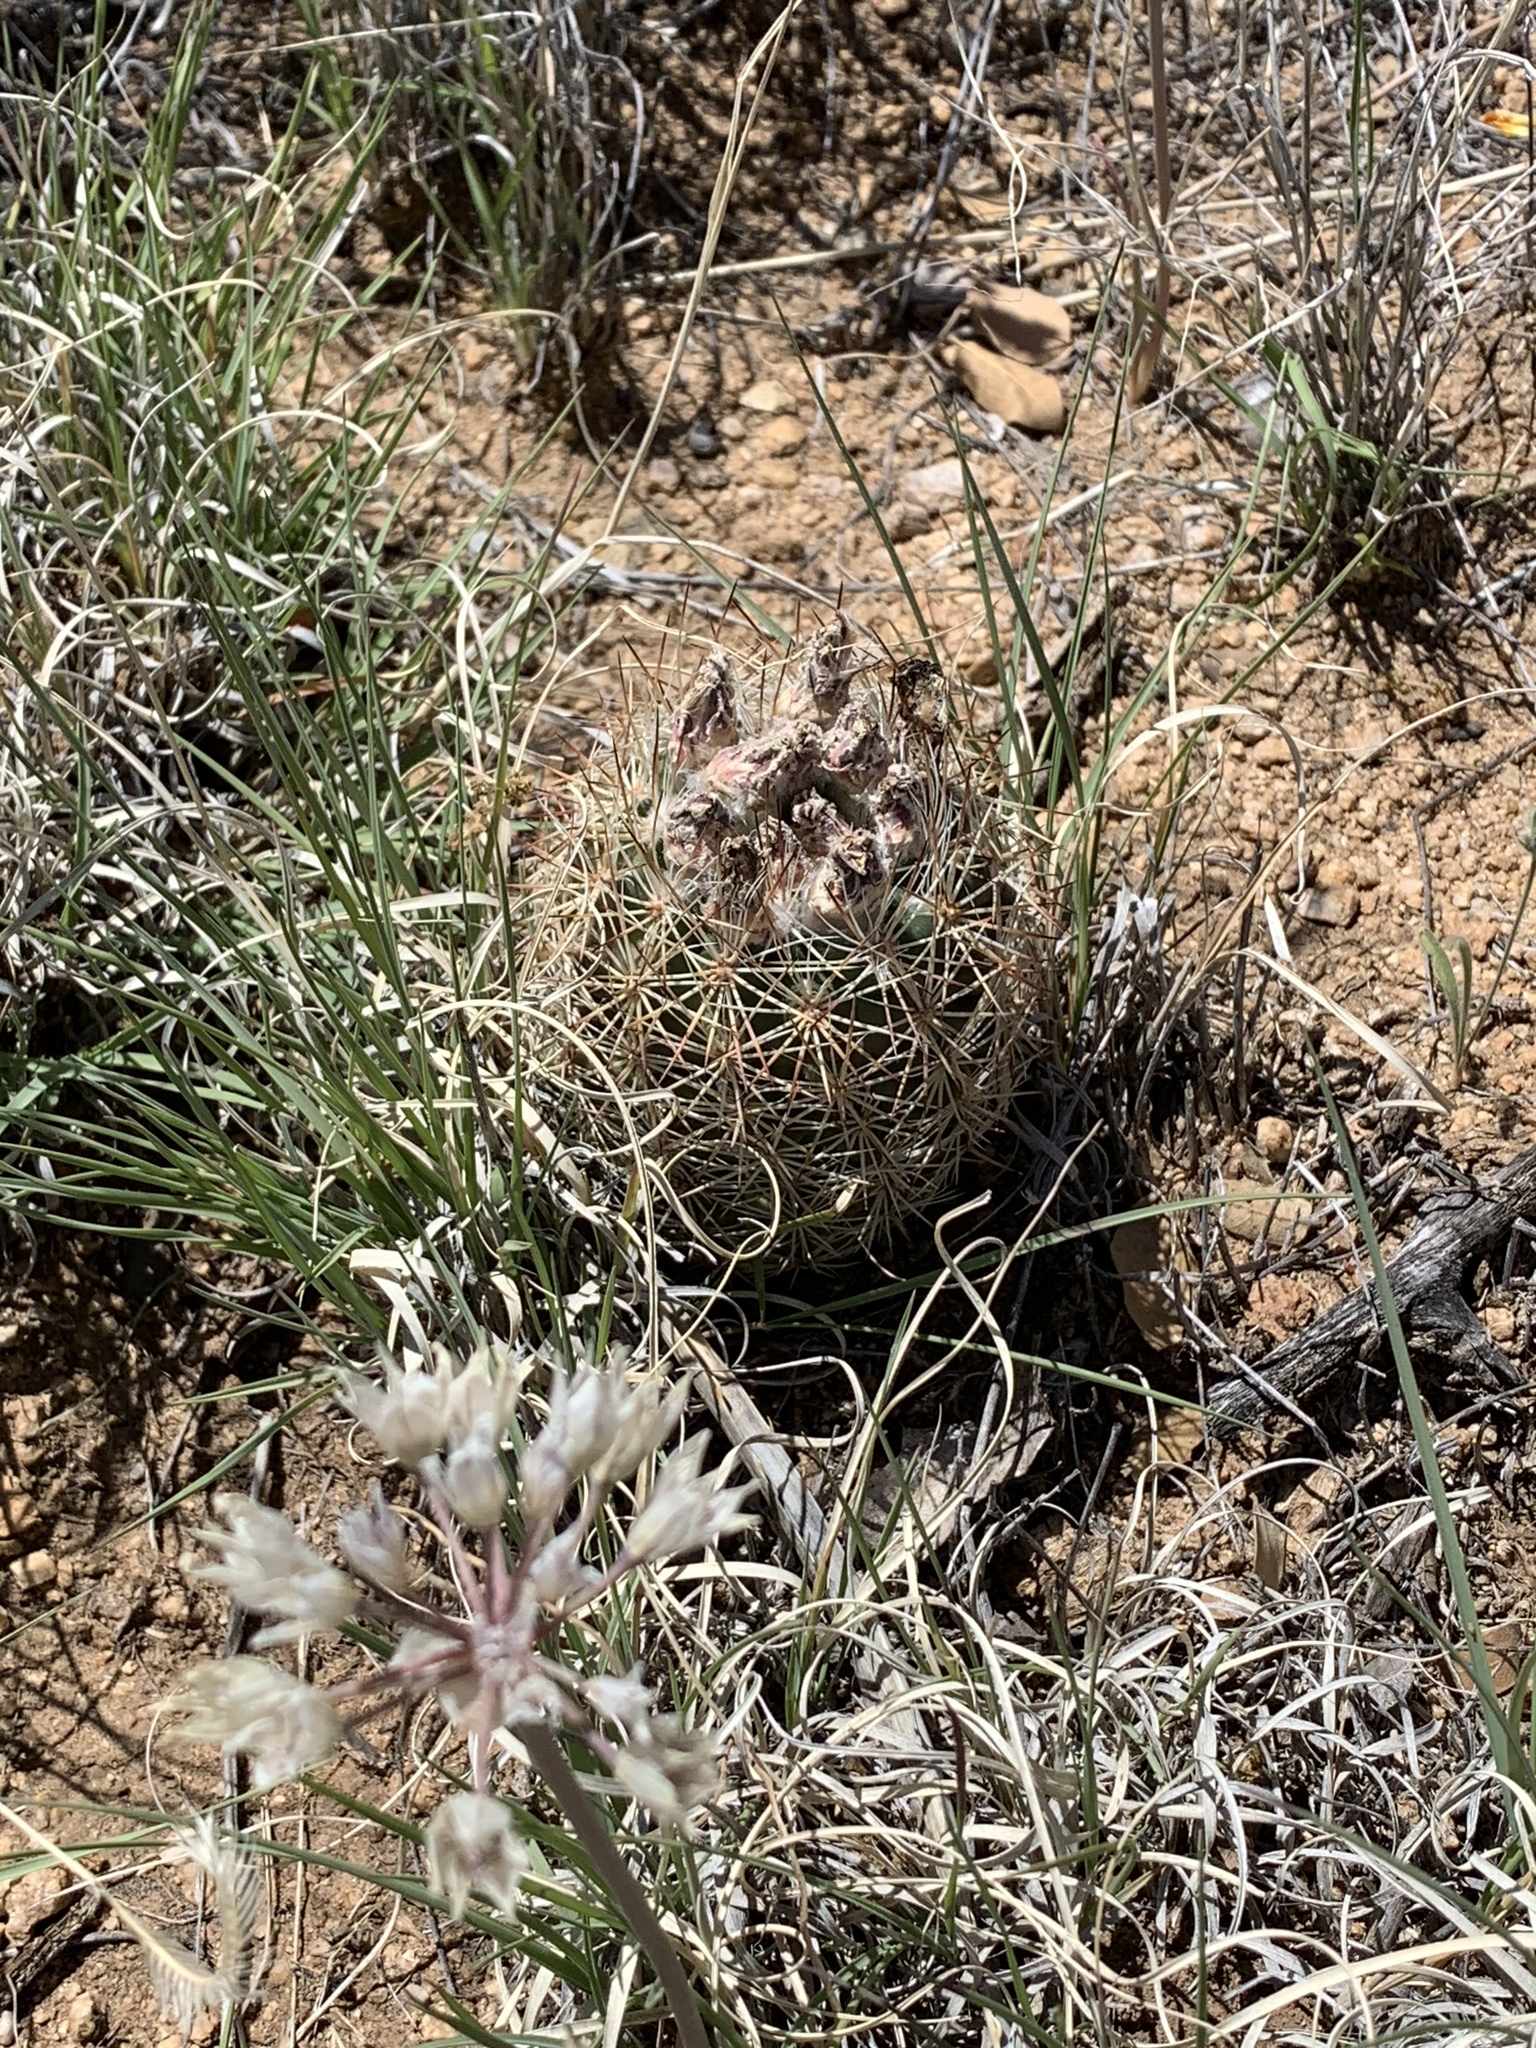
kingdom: Plantae
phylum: Tracheophyta
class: Magnoliopsida
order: Caryophyllales
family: Cactaceae
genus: Sclerocactus
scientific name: Sclerocactus intertextus
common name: White fish-hook cactus
